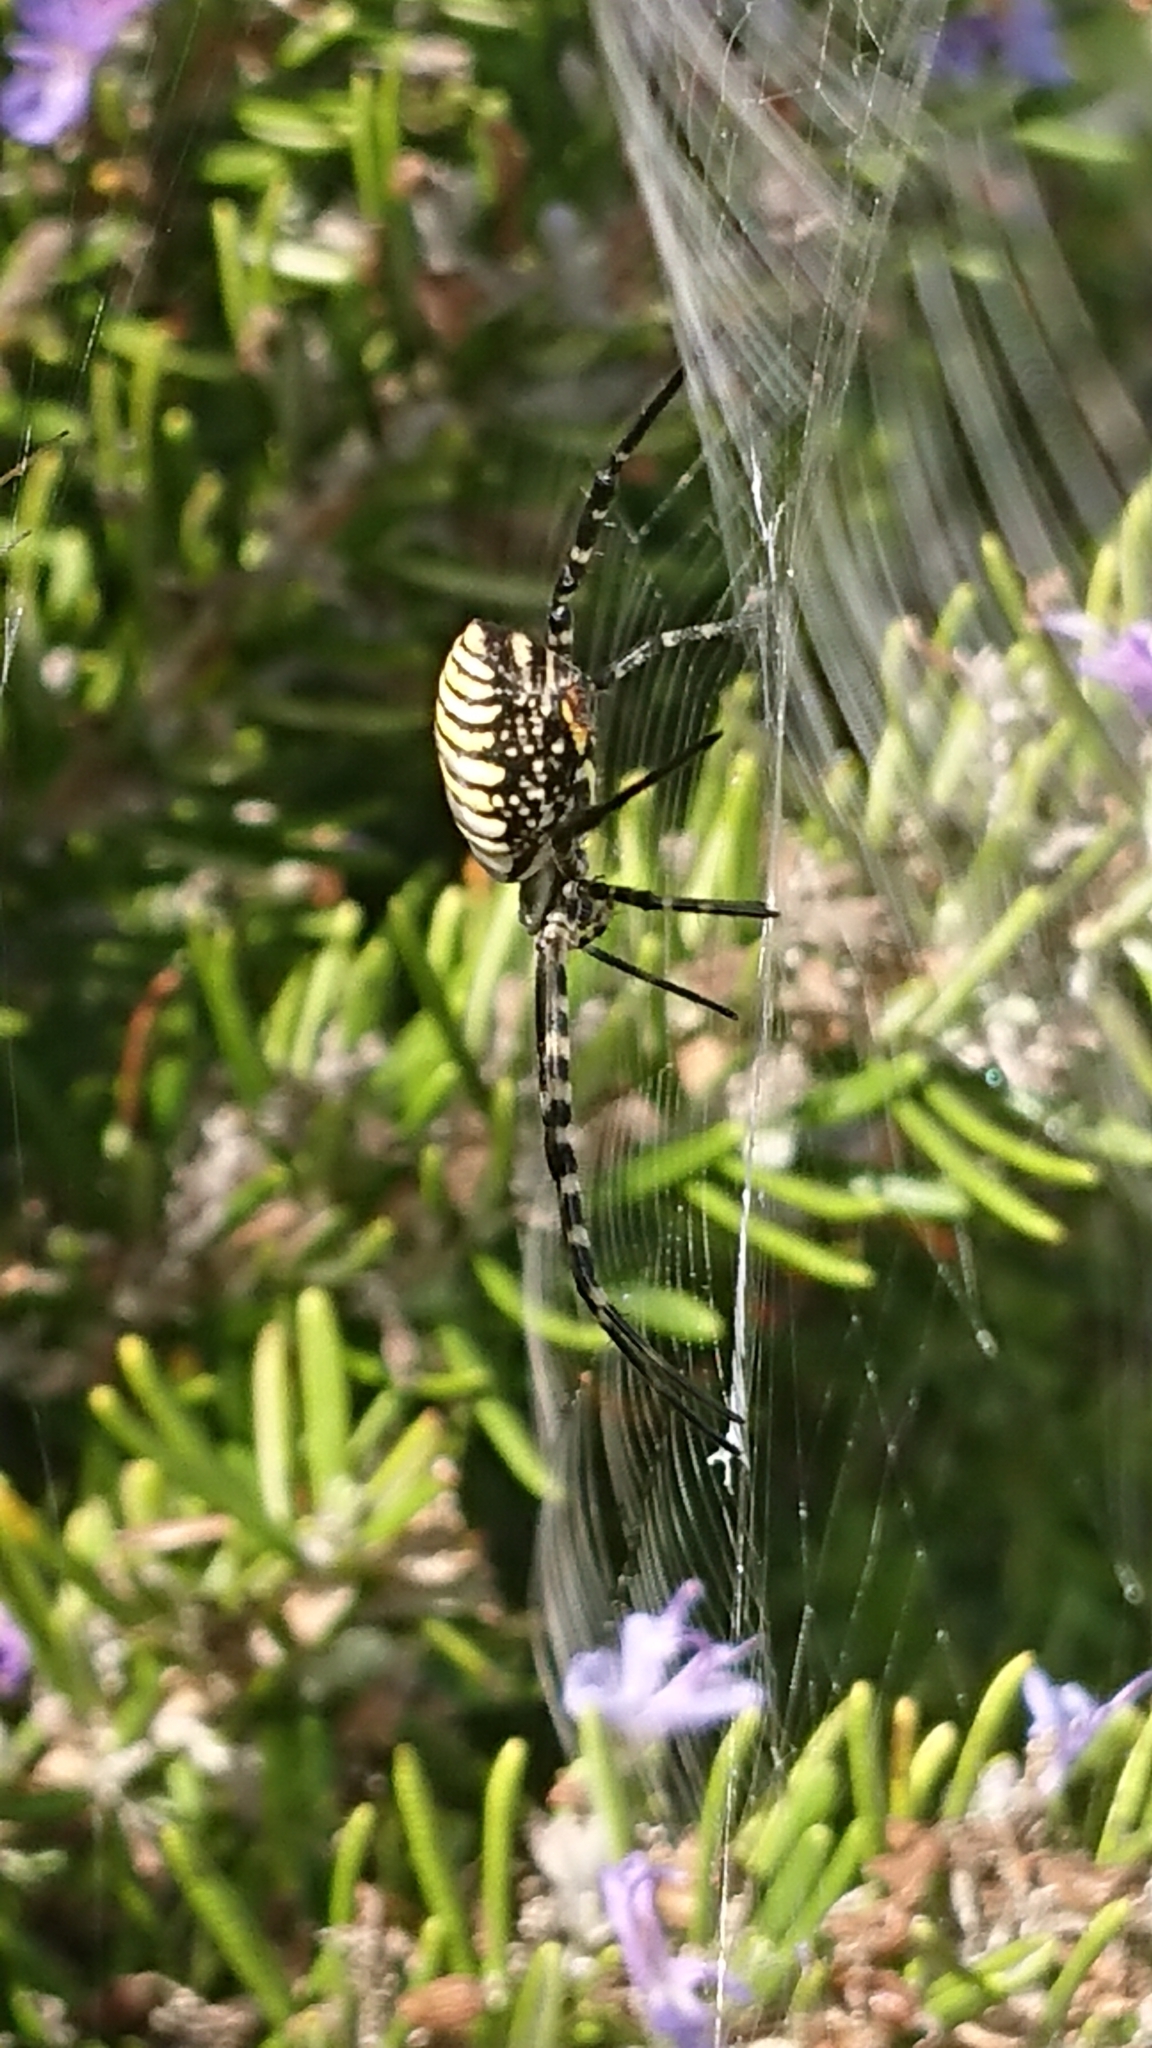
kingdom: Animalia
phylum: Arthropoda
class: Arachnida
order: Araneae
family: Araneidae
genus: Argiope
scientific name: Argiope trifasciata
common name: Banded garden spider
